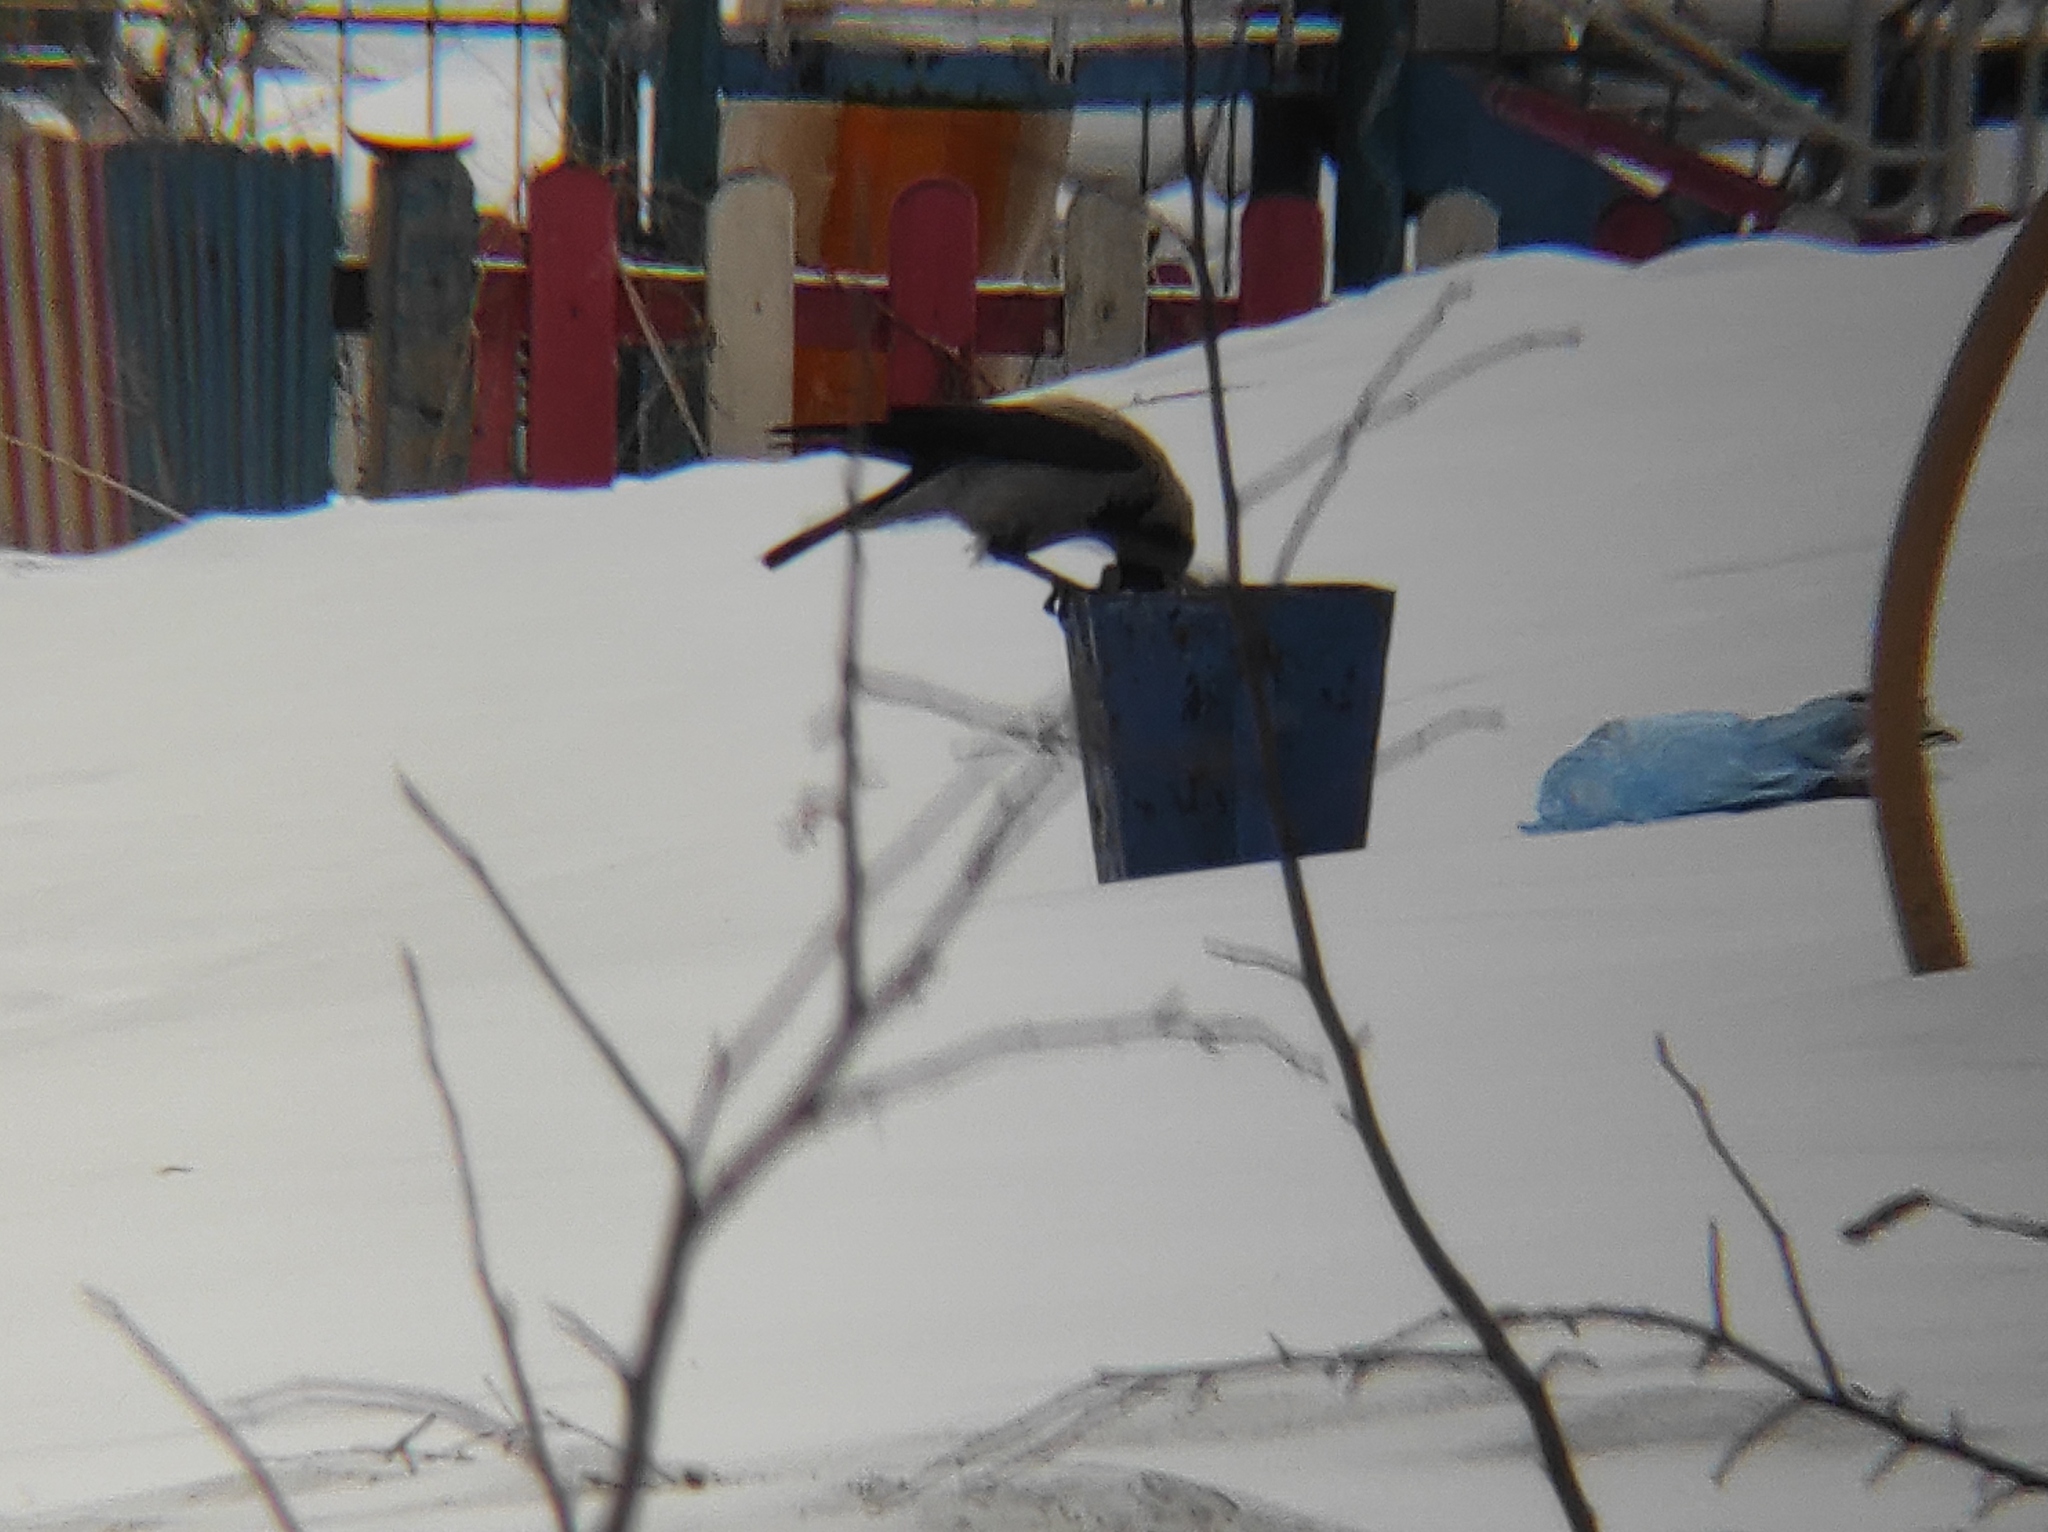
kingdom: Animalia
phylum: Chordata
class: Aves
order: Passeriformes
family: Corvidae
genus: Corvus
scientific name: Corvus cornix
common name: Hooded crow
